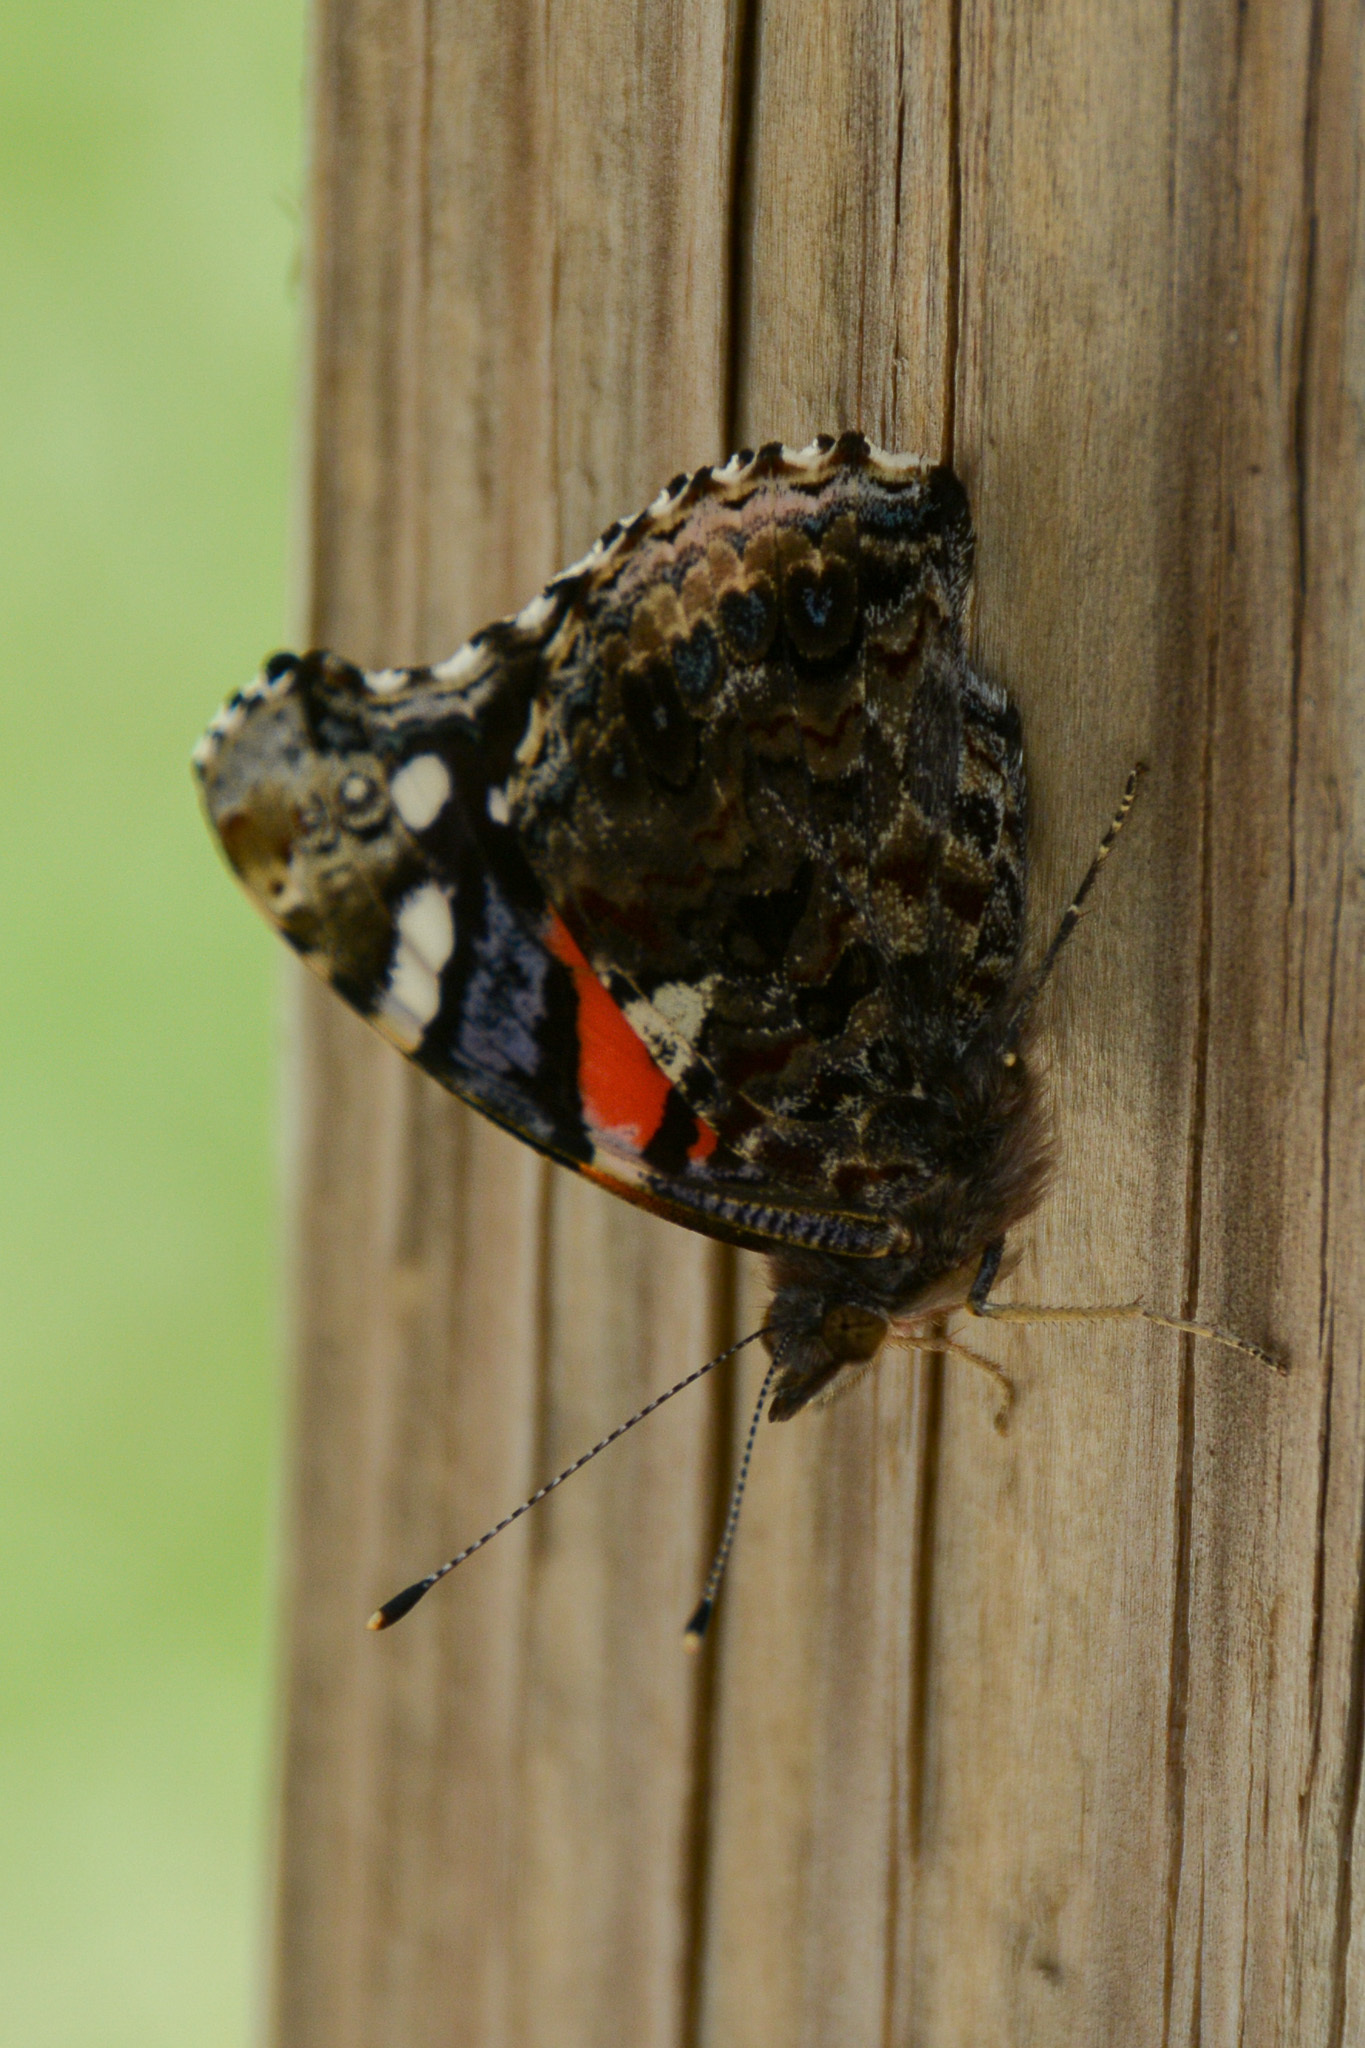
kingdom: Animalia
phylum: Arthropoda
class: Insecta
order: Lepidoptera
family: Nymphalidae
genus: Vanessa
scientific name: Vanessa atalanta
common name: Red admiral
